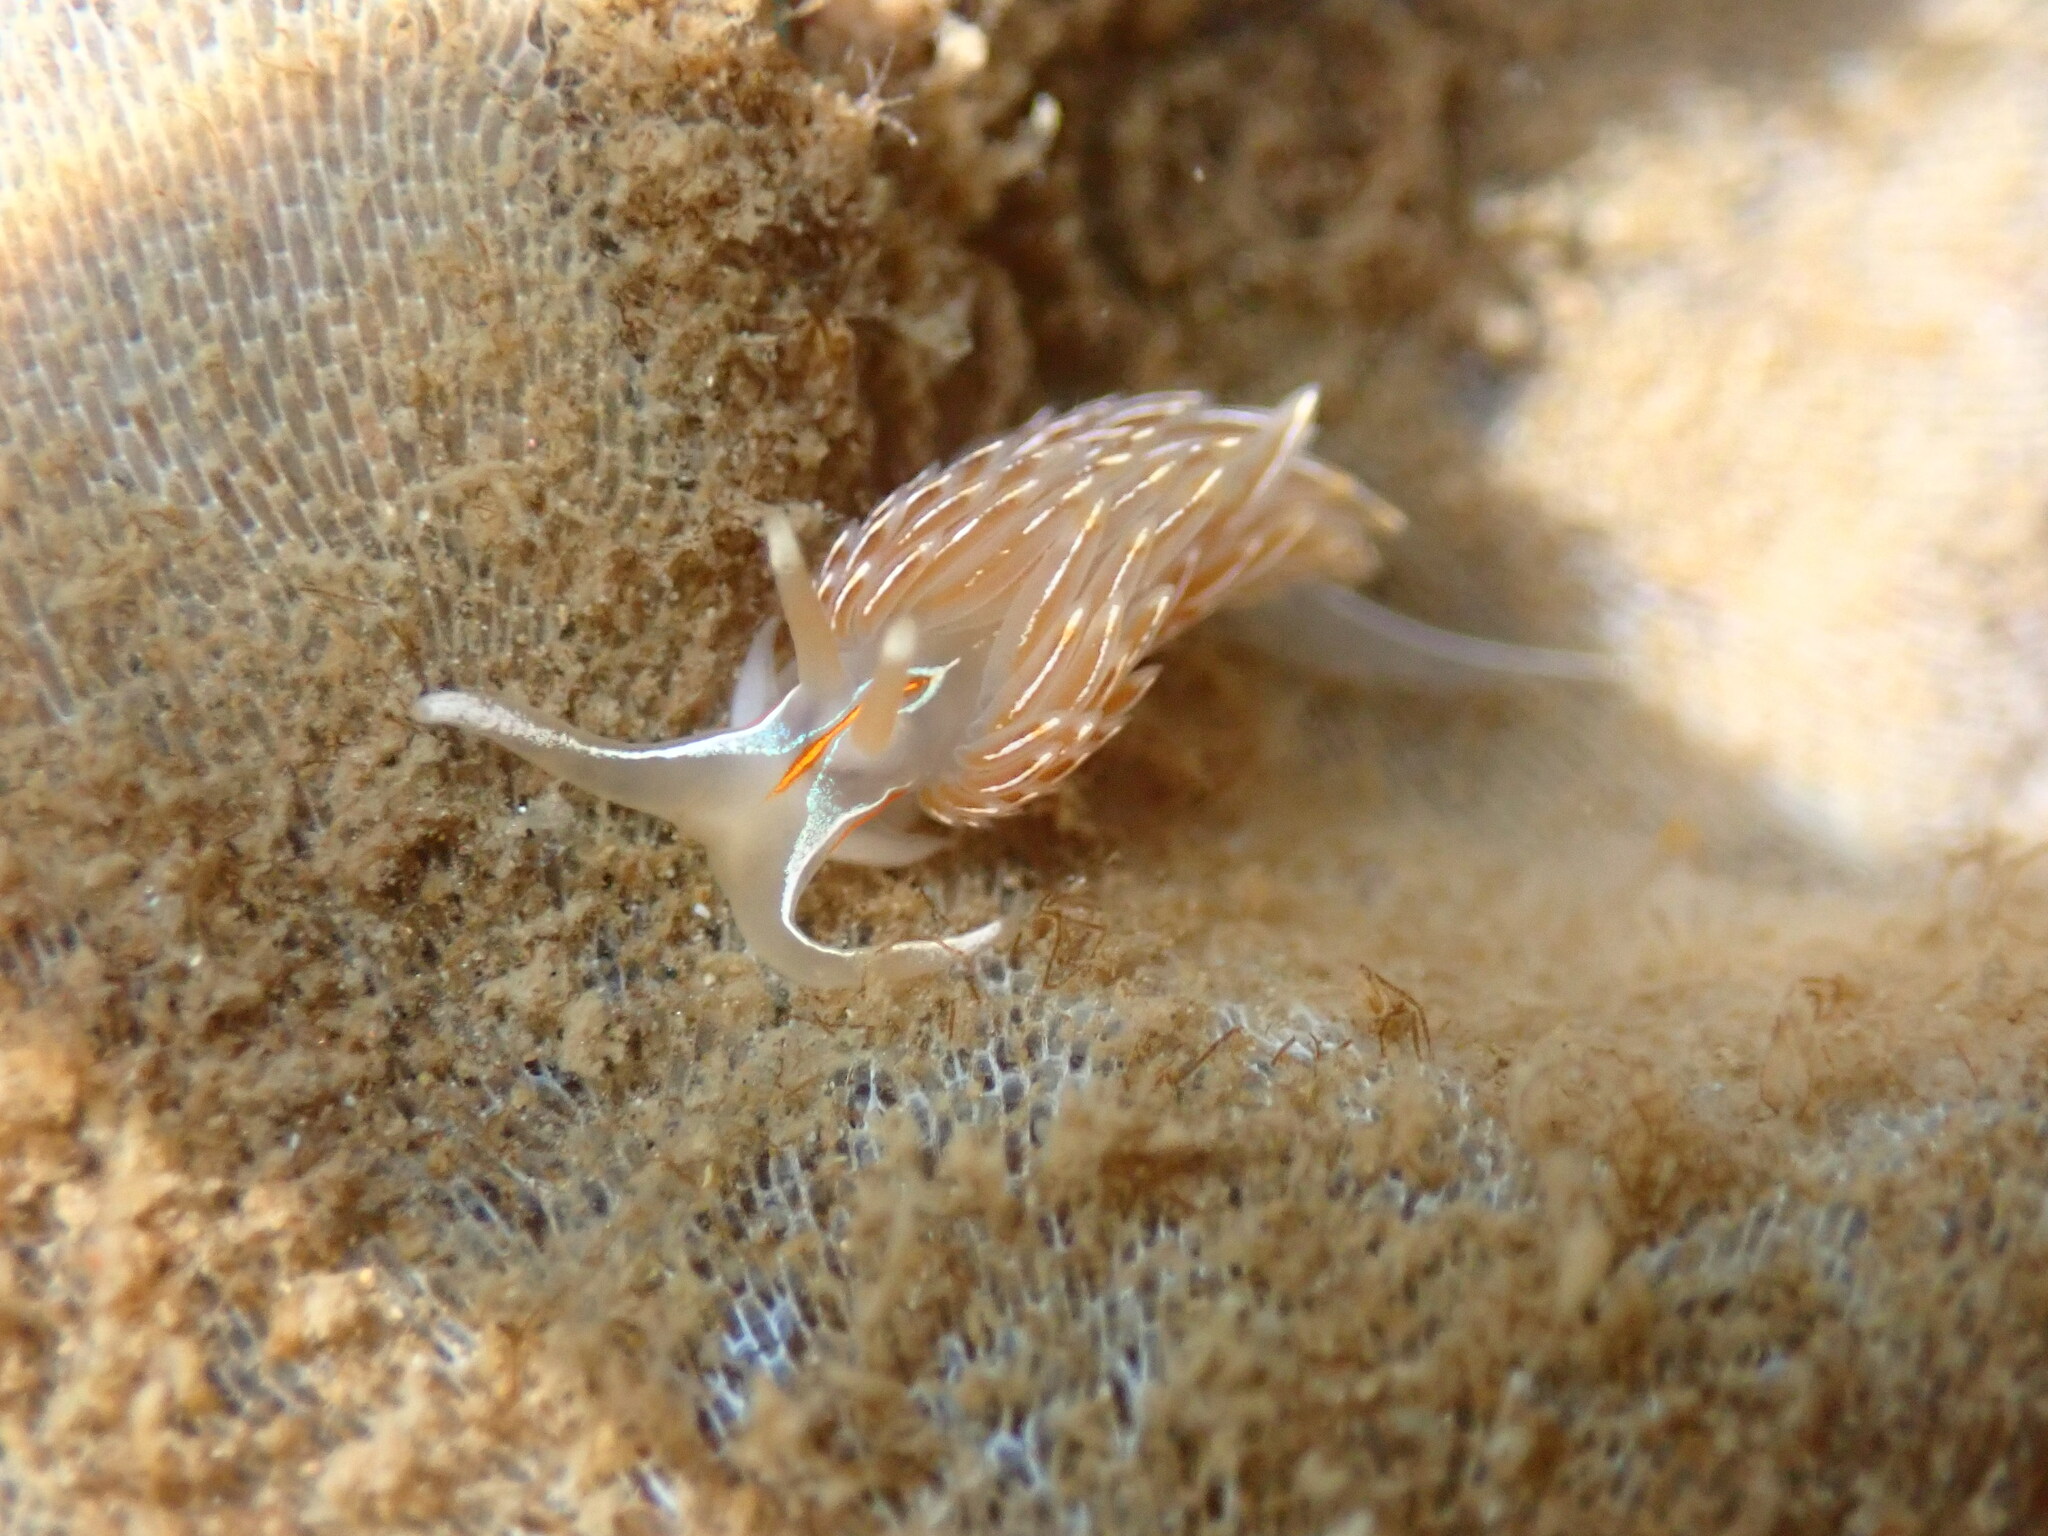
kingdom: Animalia
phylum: Mollusca
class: Gastropoda
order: Nudibranchia
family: Myrrhinidae
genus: Hermissenda
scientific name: Hermissenda crassicornis
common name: Hermissenda
